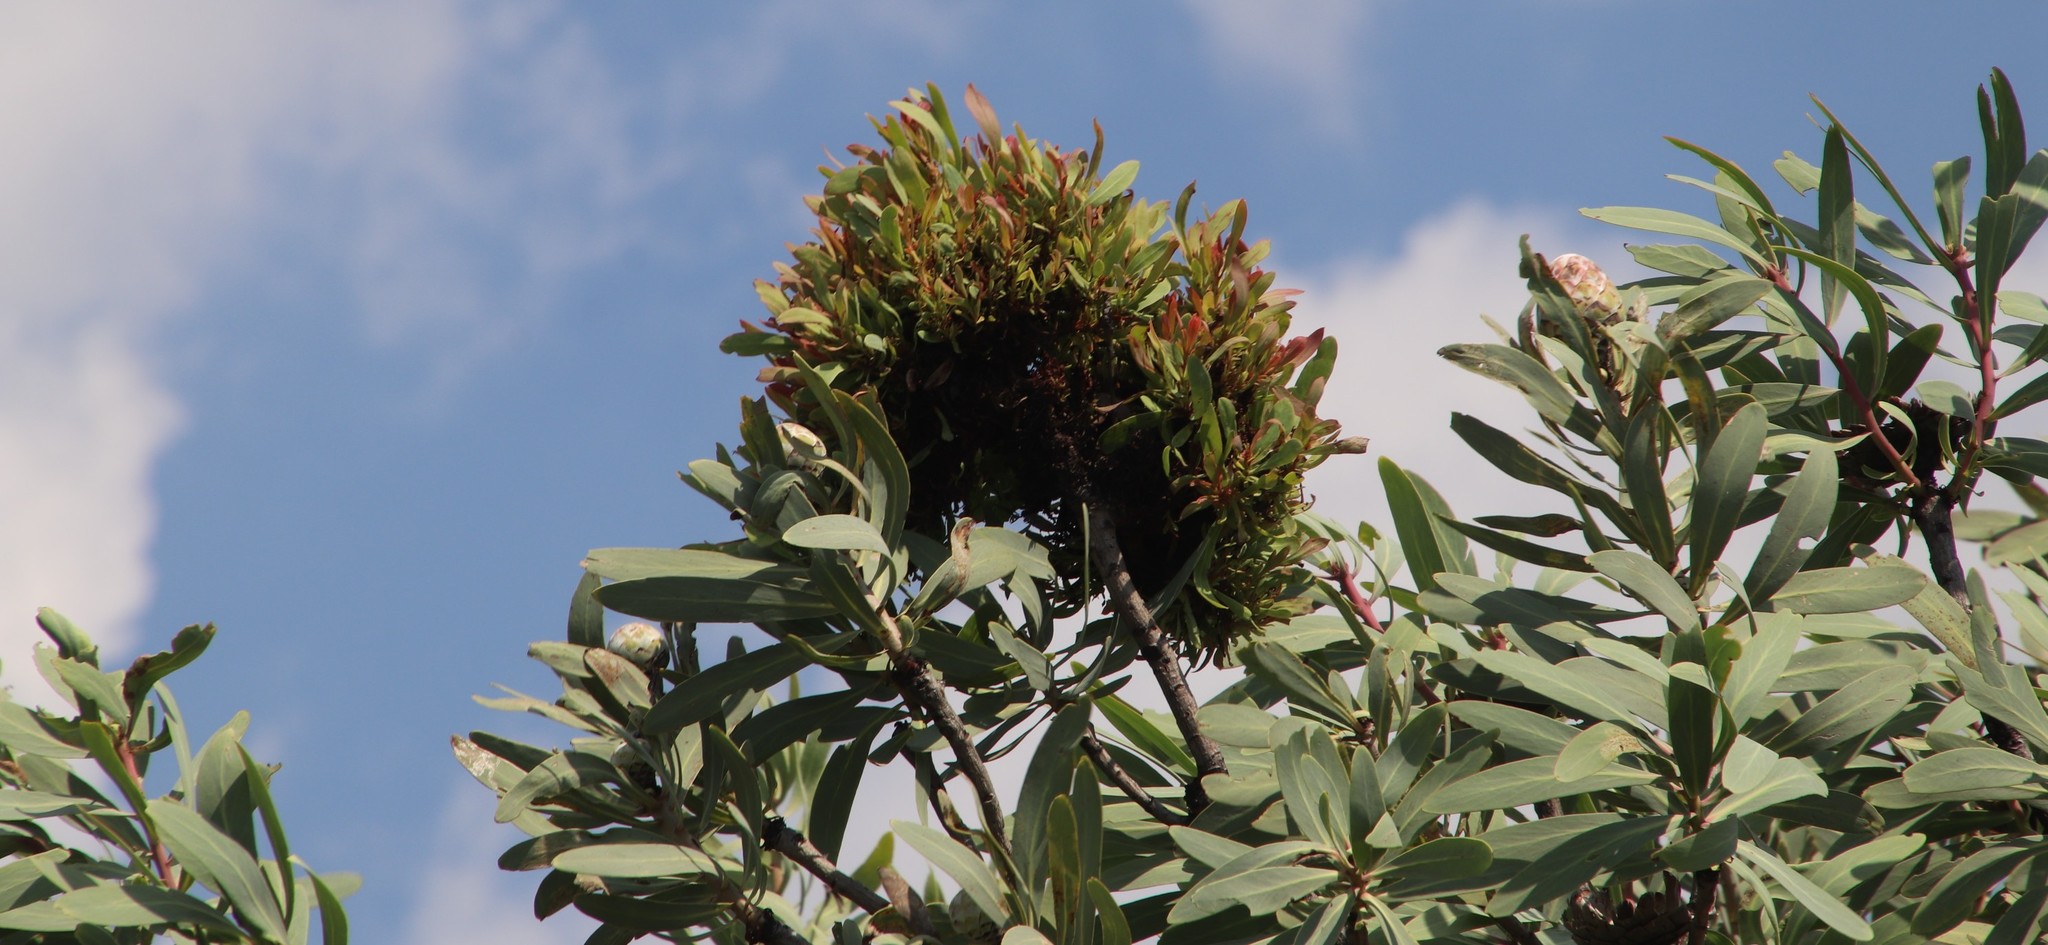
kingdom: Bacteria
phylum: Firmicutes
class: Bacilli
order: Acholeplasmatales
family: Acholeplasmataceae
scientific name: Acholeplasmataceae
